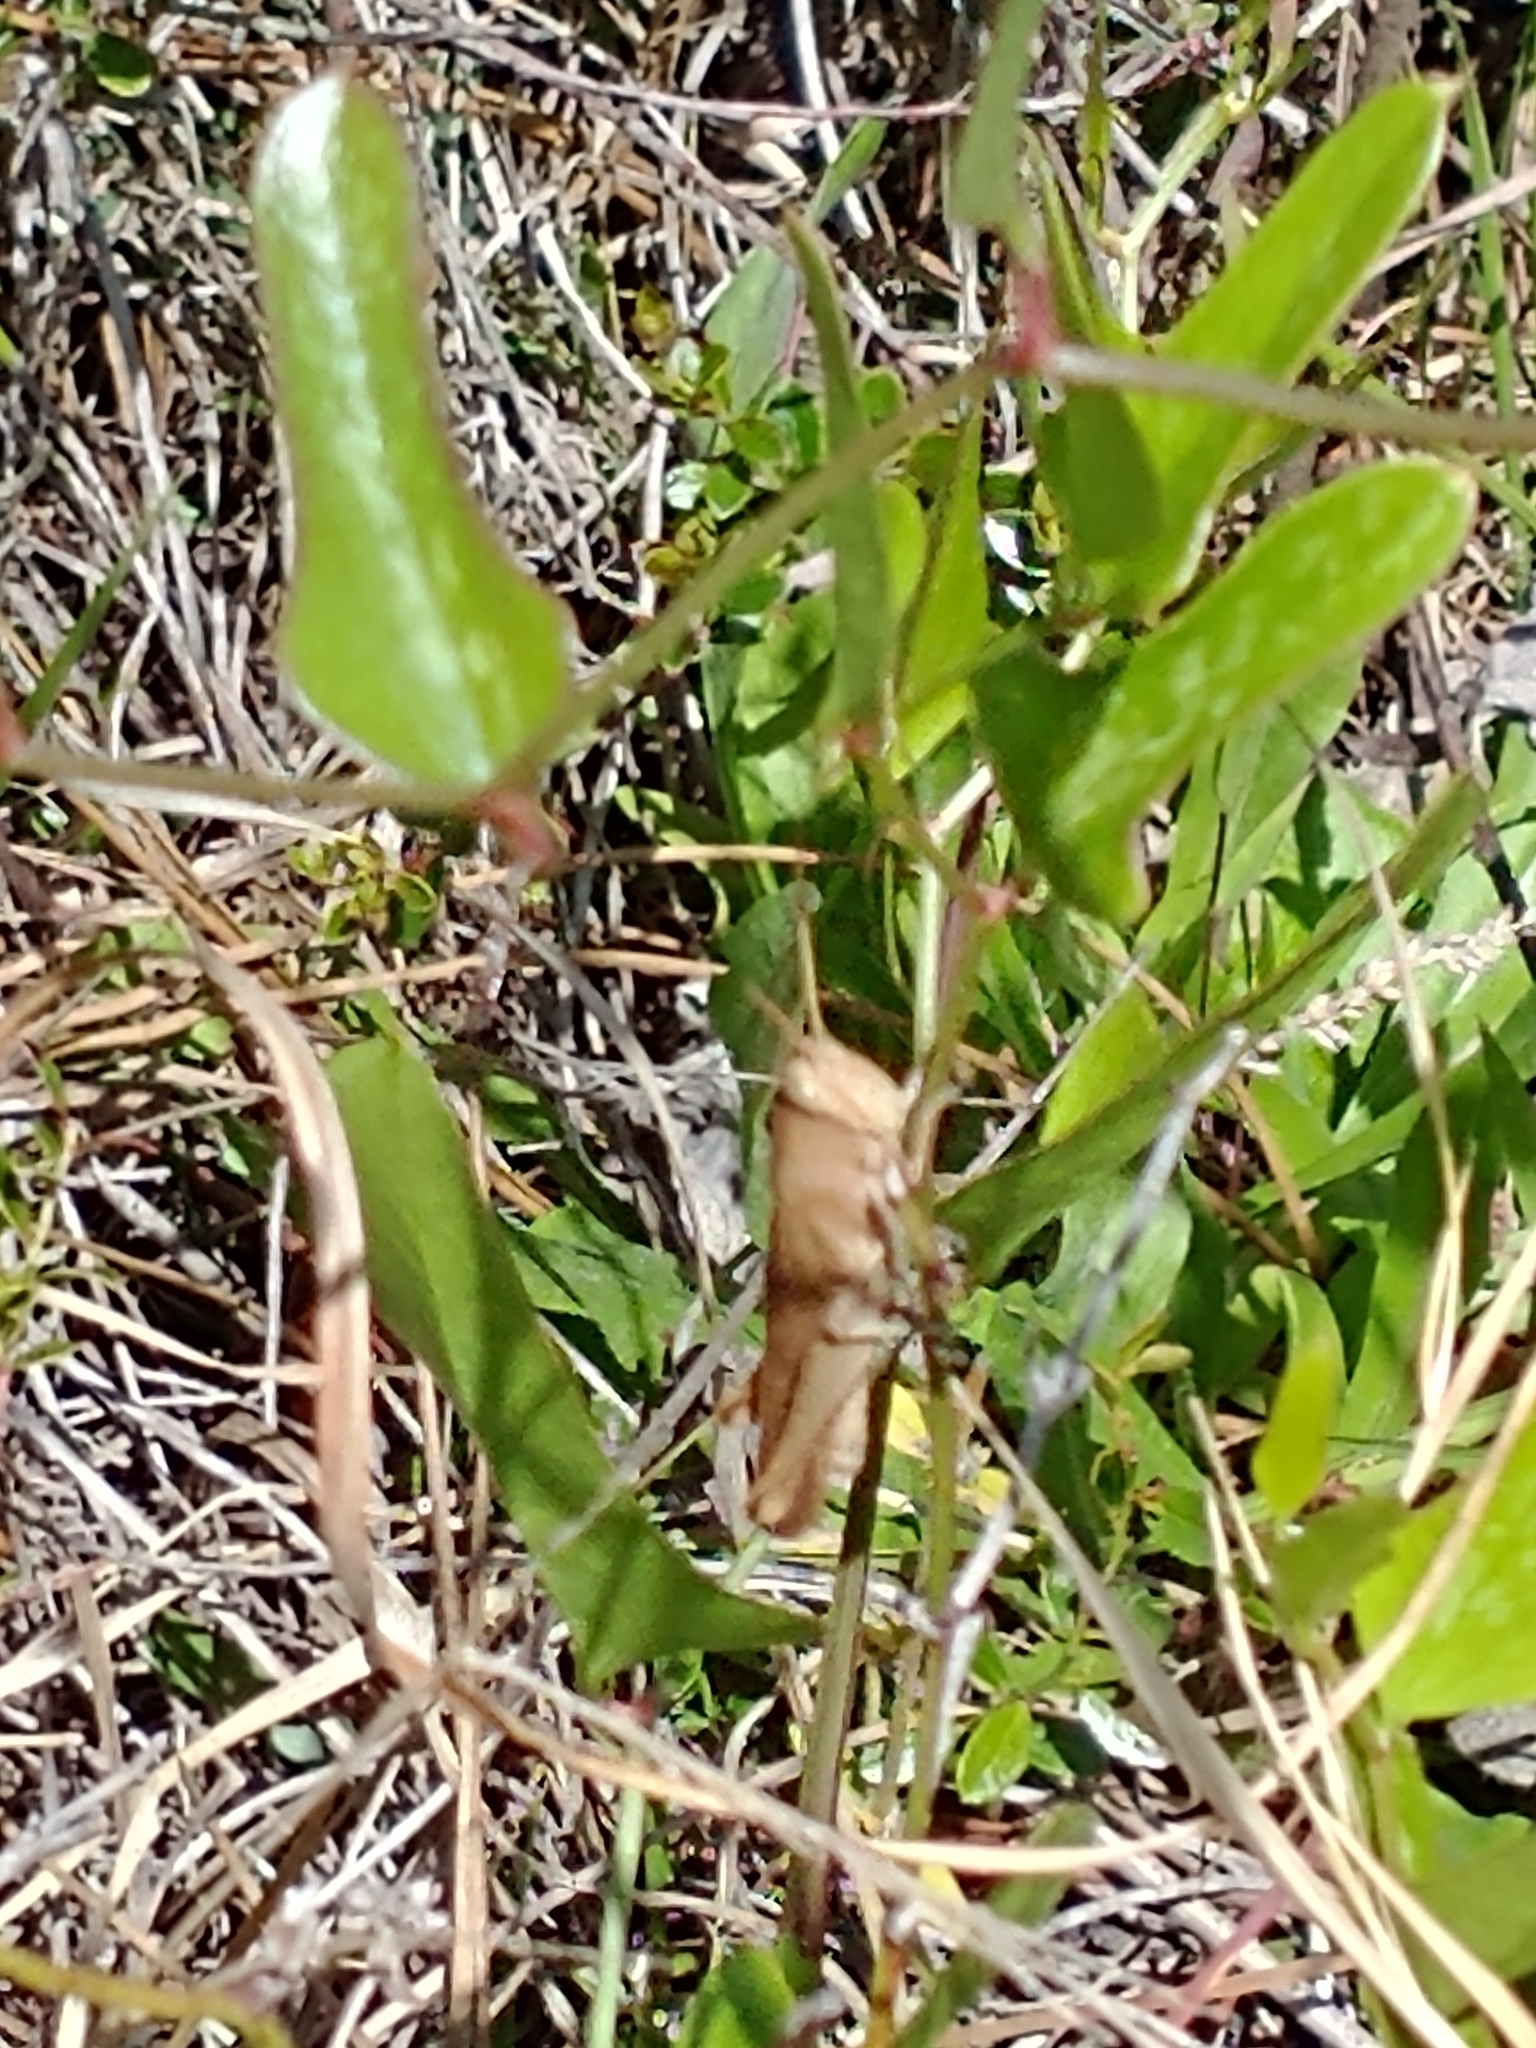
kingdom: Animalia
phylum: Arthropoda
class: Insecta
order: Orthoptera
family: Acrididae
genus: Schistocerca
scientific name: Schistocerca damnifica
